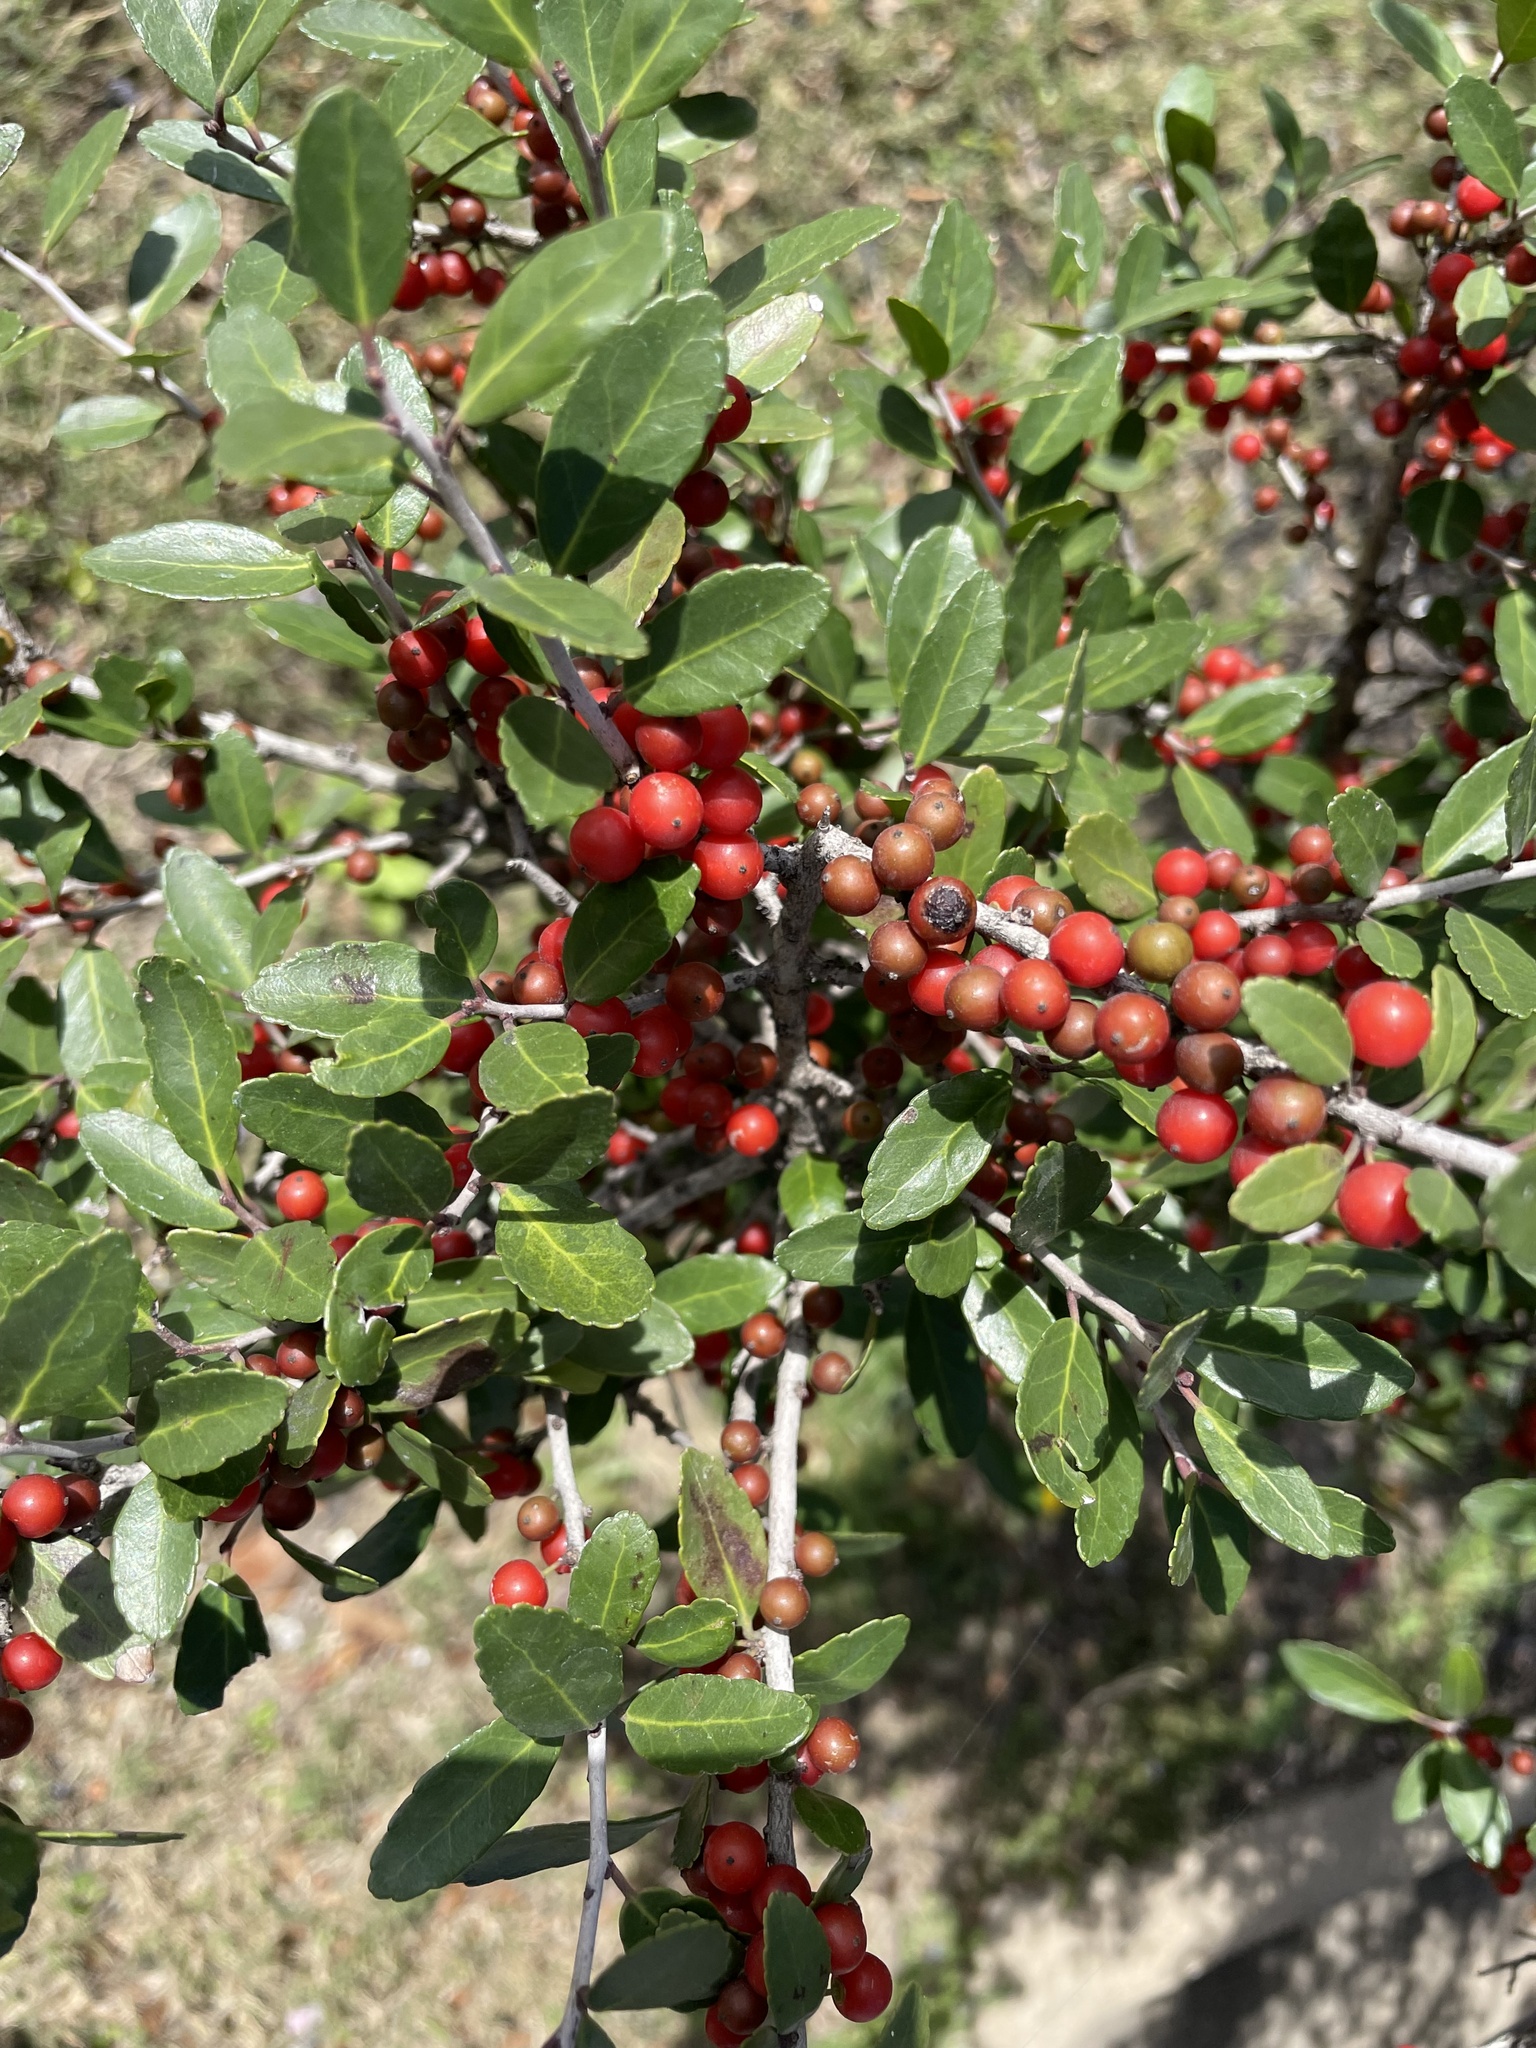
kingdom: Plantae
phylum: Tracheophyta
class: Magnoliopsida
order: Aquifoliales
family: Aquifoliaceae
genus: Ilex
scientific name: Ilex vomitoria
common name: Yaupon holly
